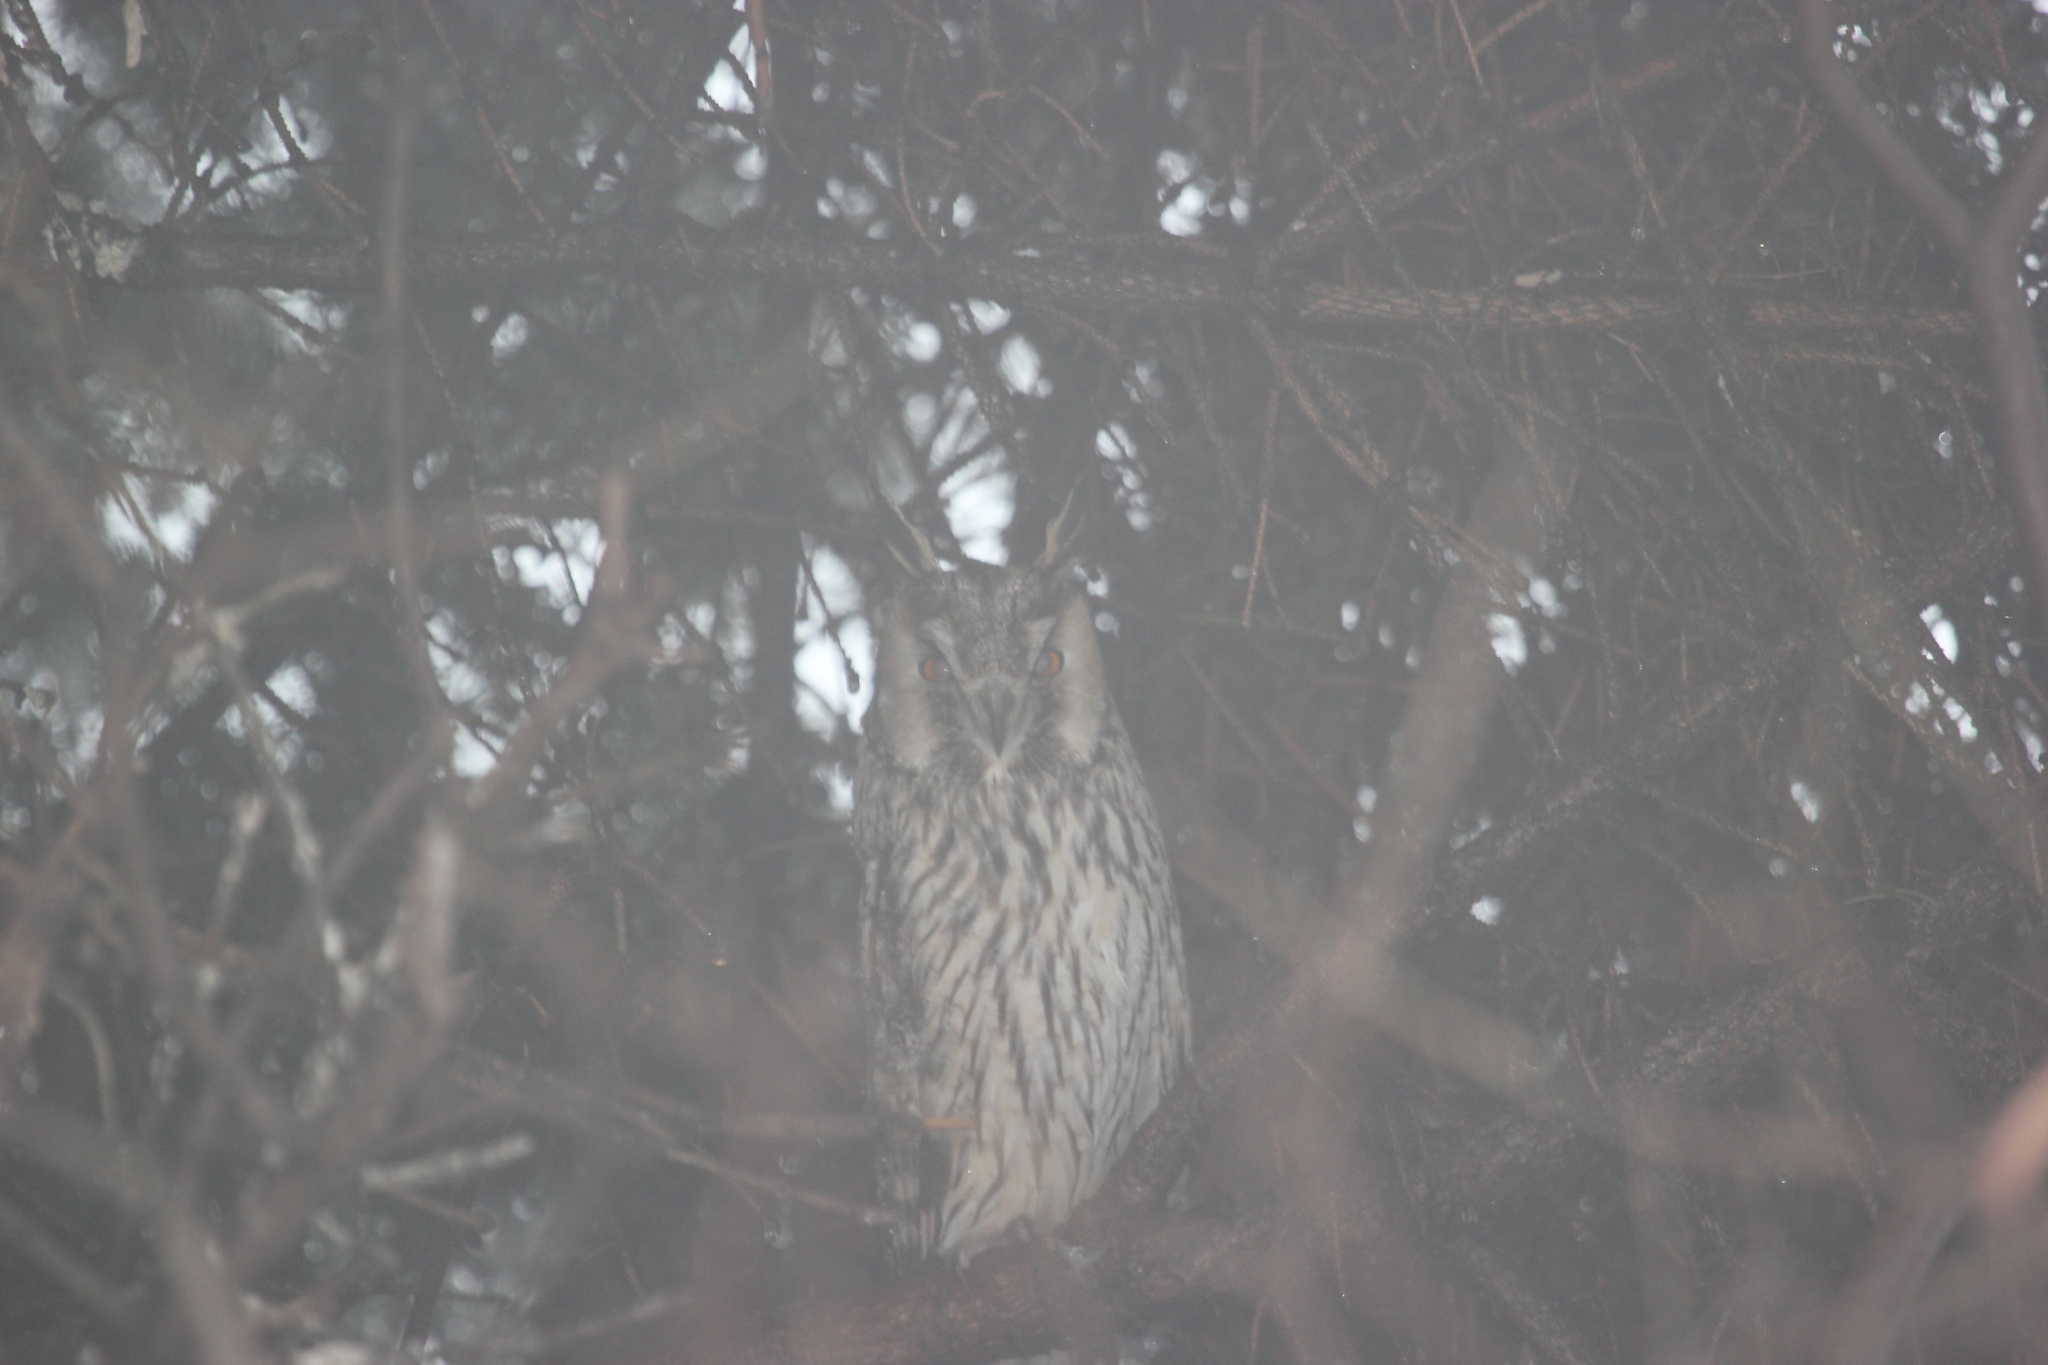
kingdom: Animalia
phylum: Chordata
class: Aves
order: Strigiformes
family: Strigidae
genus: Asio
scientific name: Asio otus
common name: Long-eared owl
